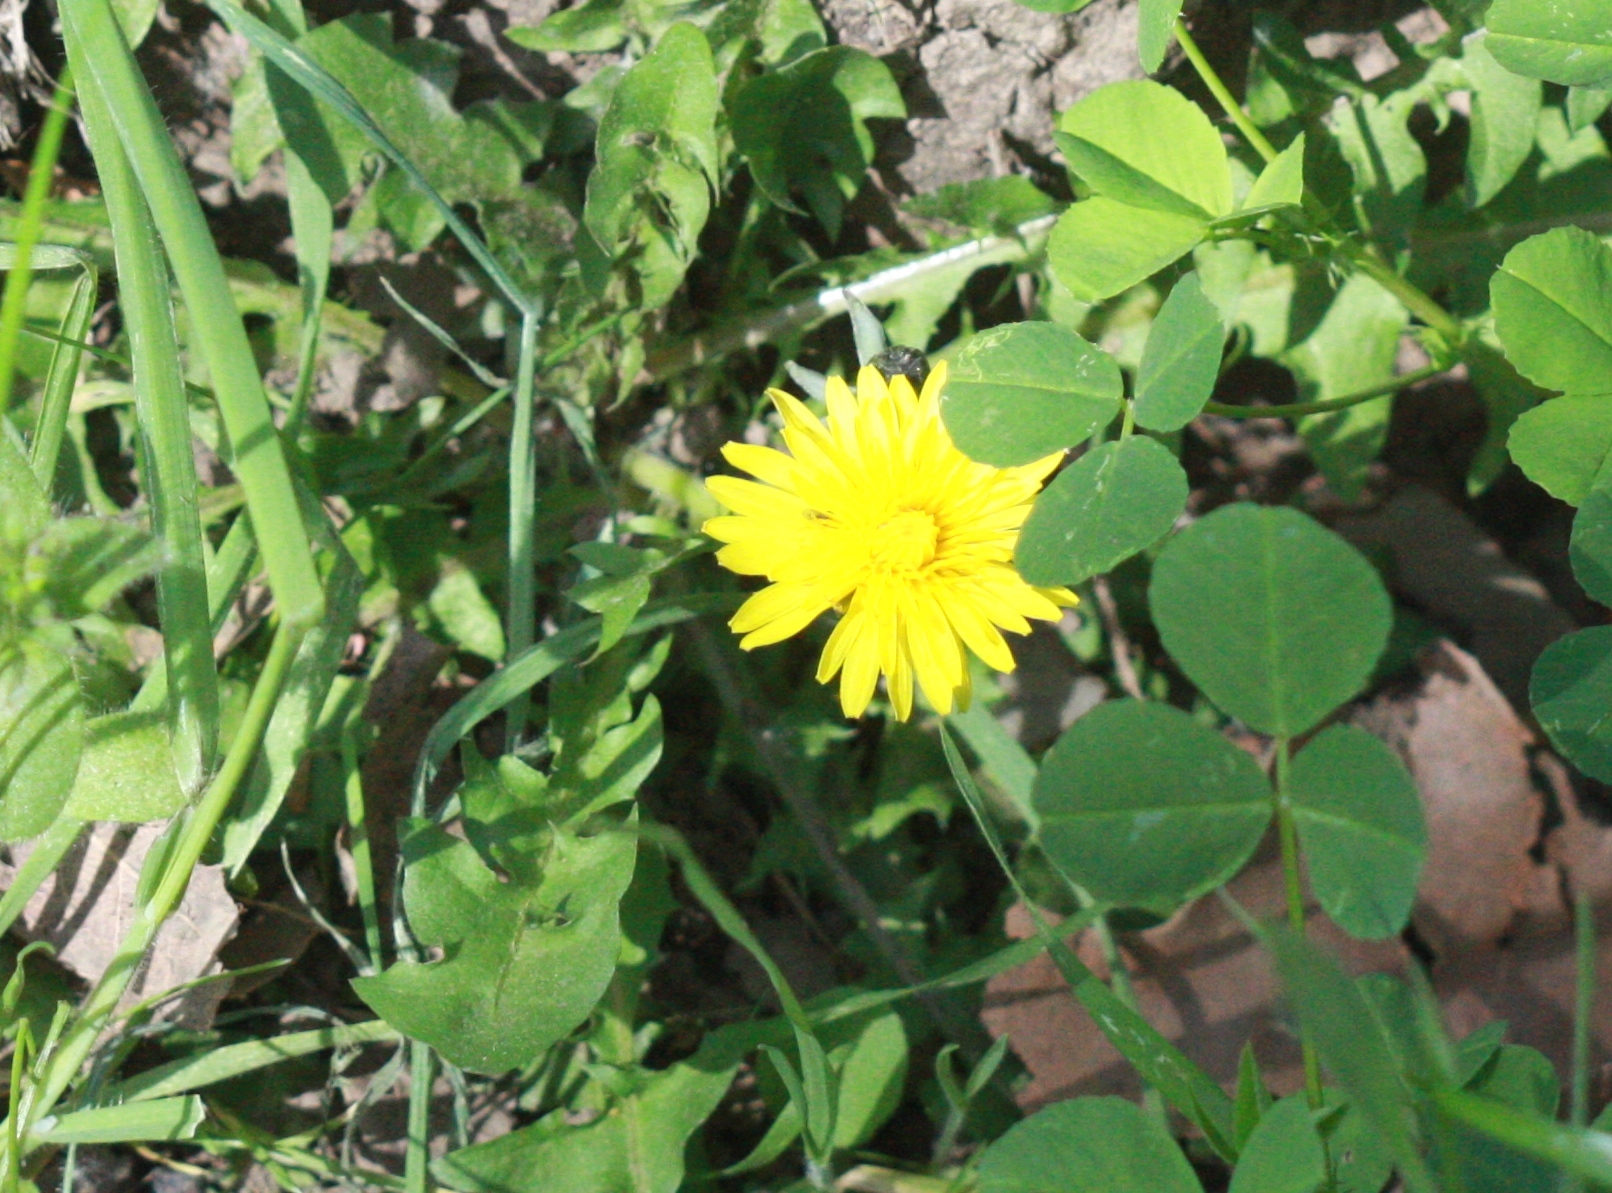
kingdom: Plantae
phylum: Tracheophyta
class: Magnoliopsida
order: Asterales
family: Asteraceae
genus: Taraxacum
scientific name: Taraxacum officinale
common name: Common dandelion
